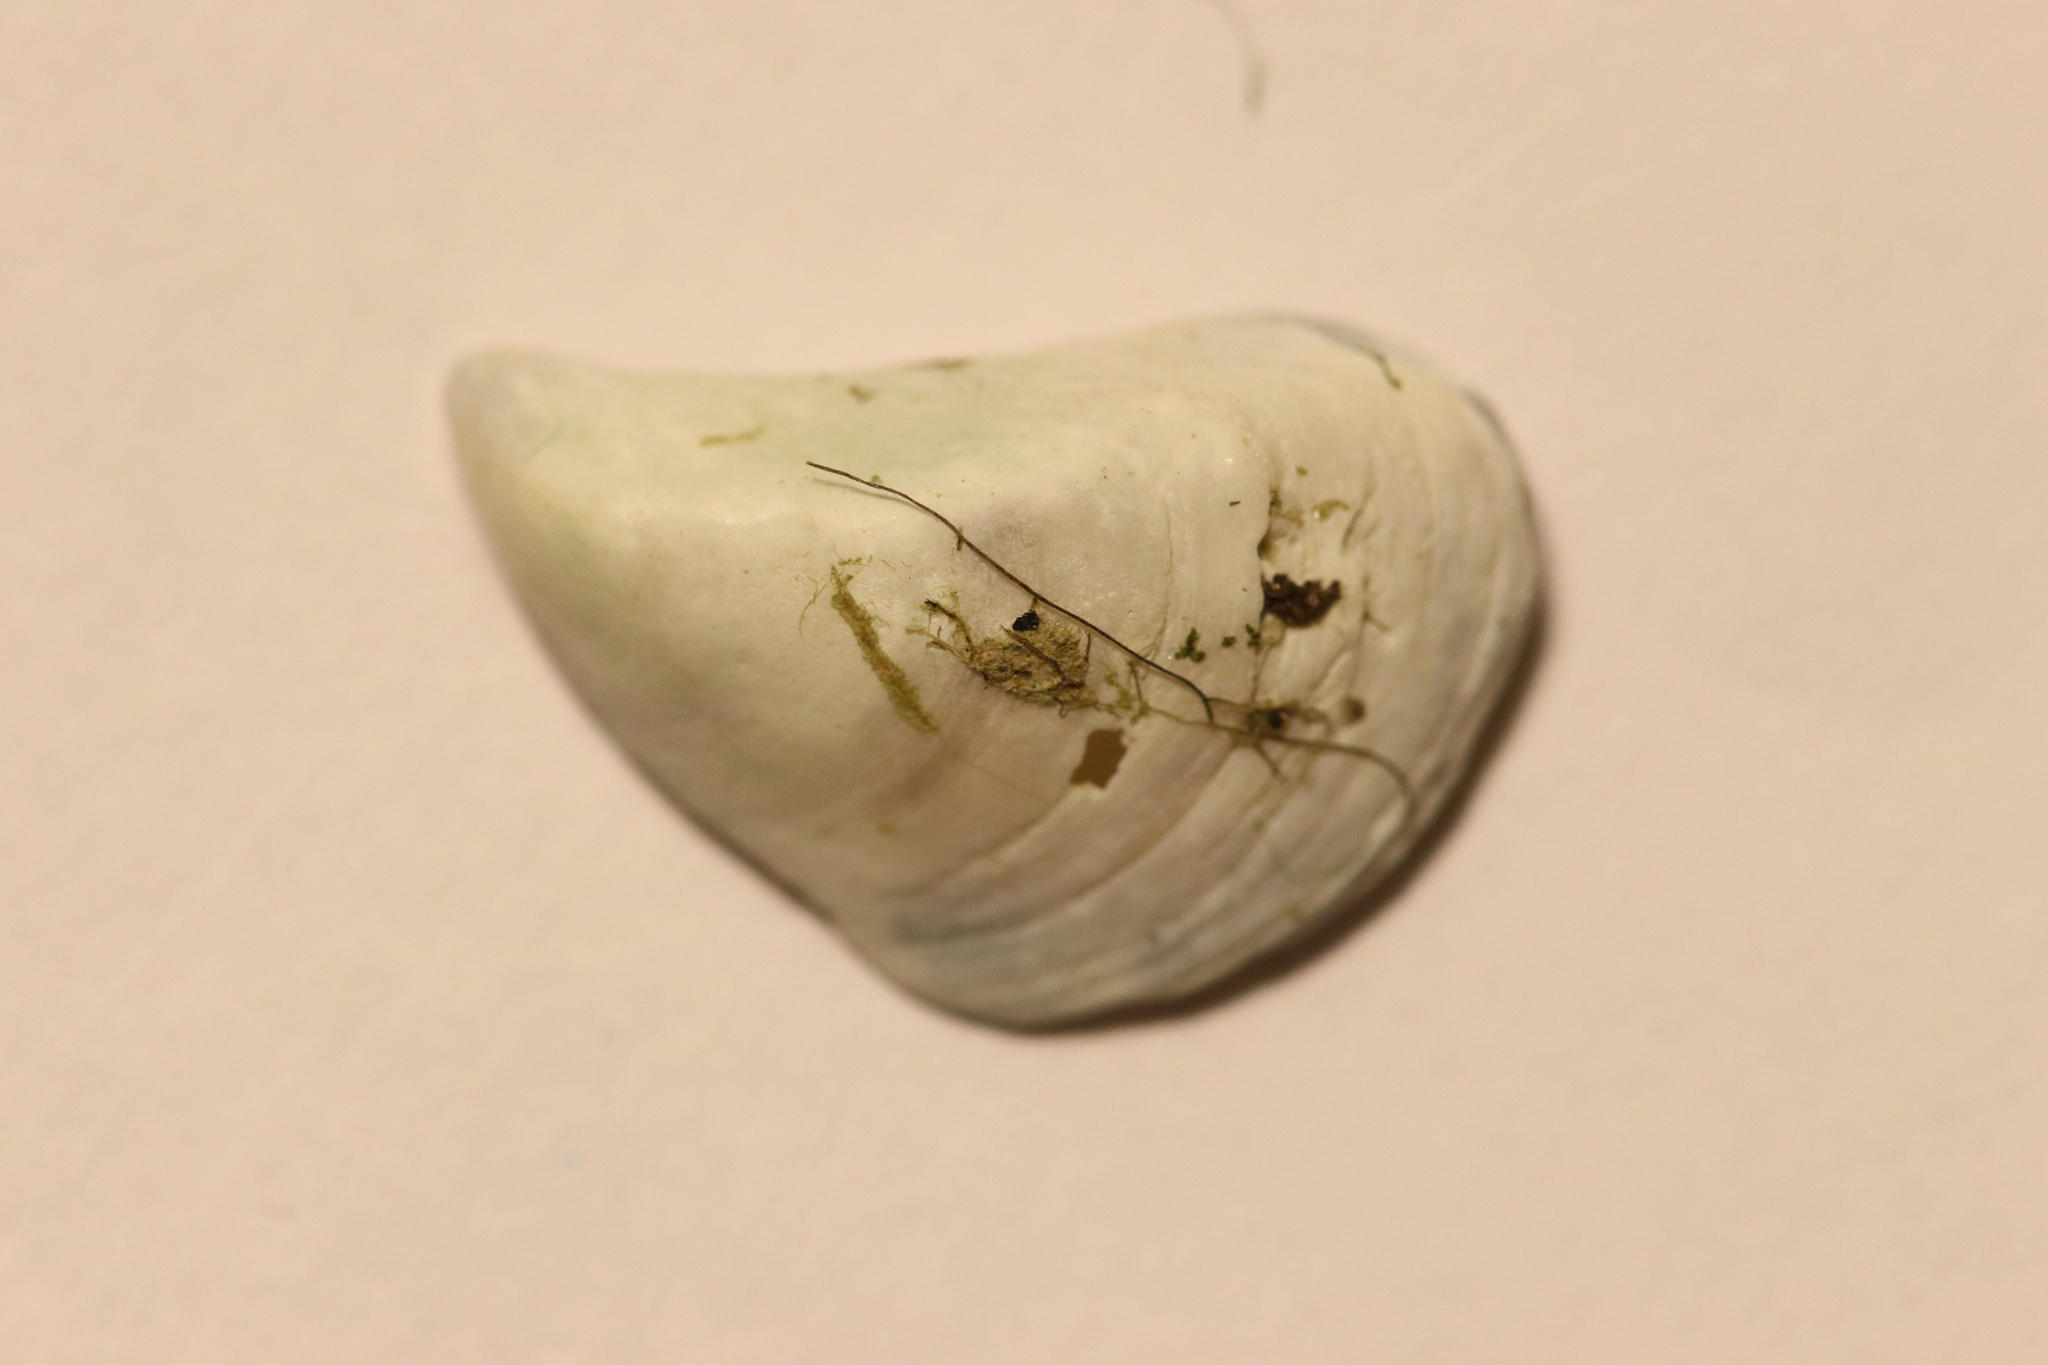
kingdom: Animalia
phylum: Mollusca
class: Bivalvia
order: Myida
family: Dreissenidae
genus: Dreissena
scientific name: Dreissena bugensis
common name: Quagga mussel
